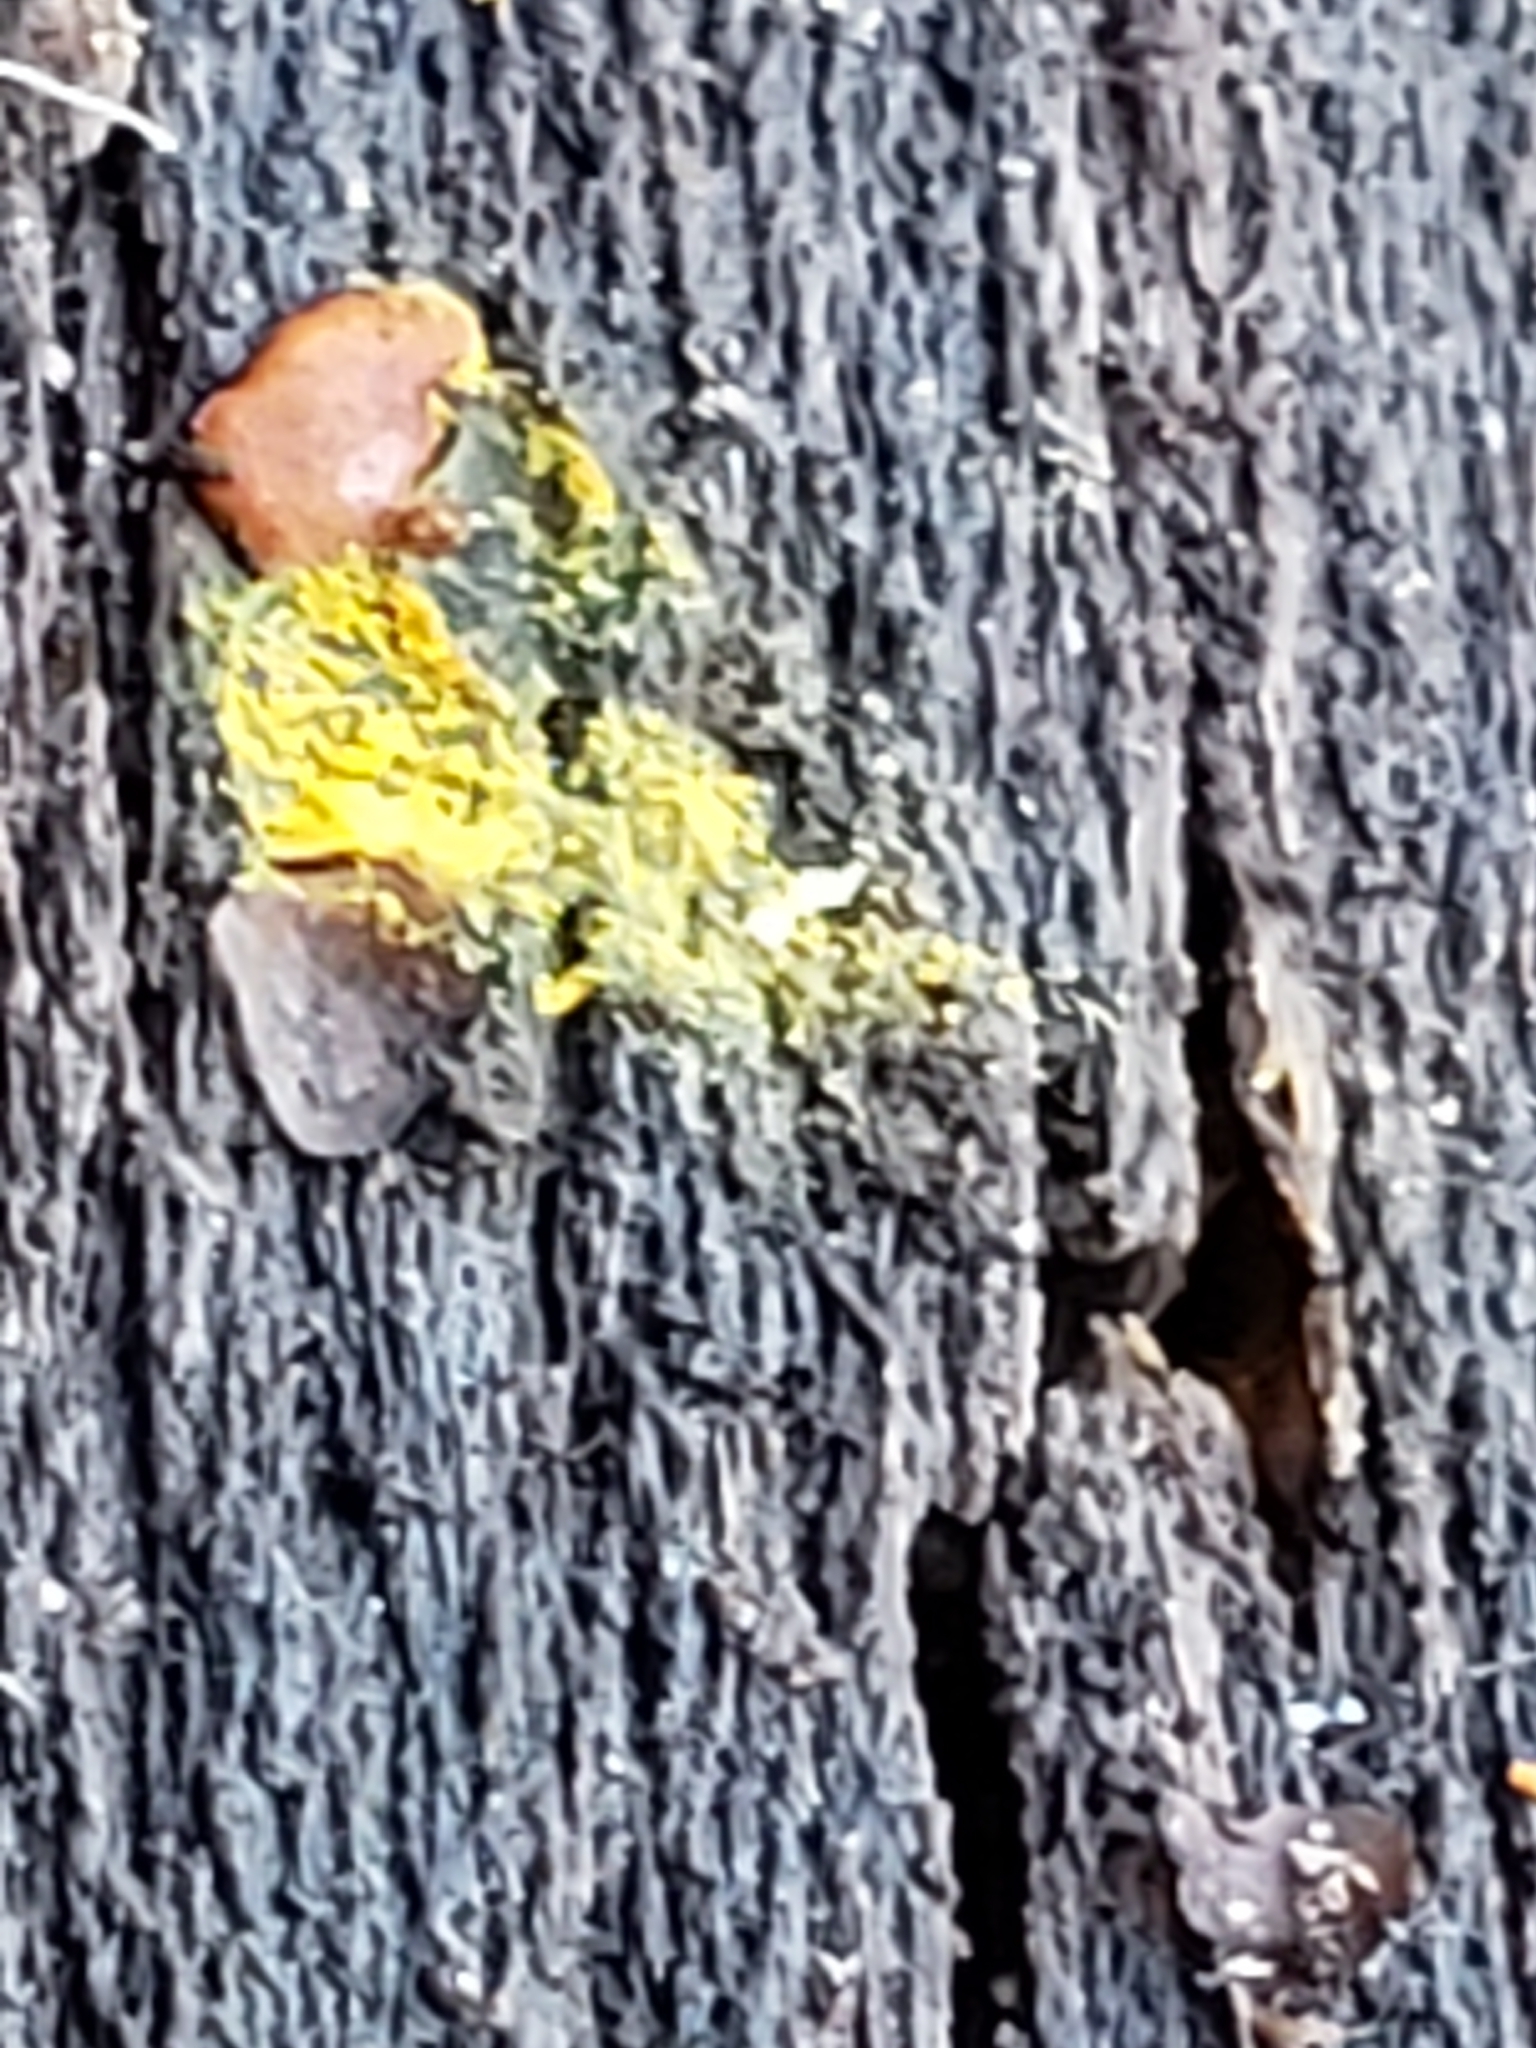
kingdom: Protozoa
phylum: Mycetozoa
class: Myxomycetes
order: Trichiales
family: Trichiaceae
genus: Perichaena
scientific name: Perichaena depressa
